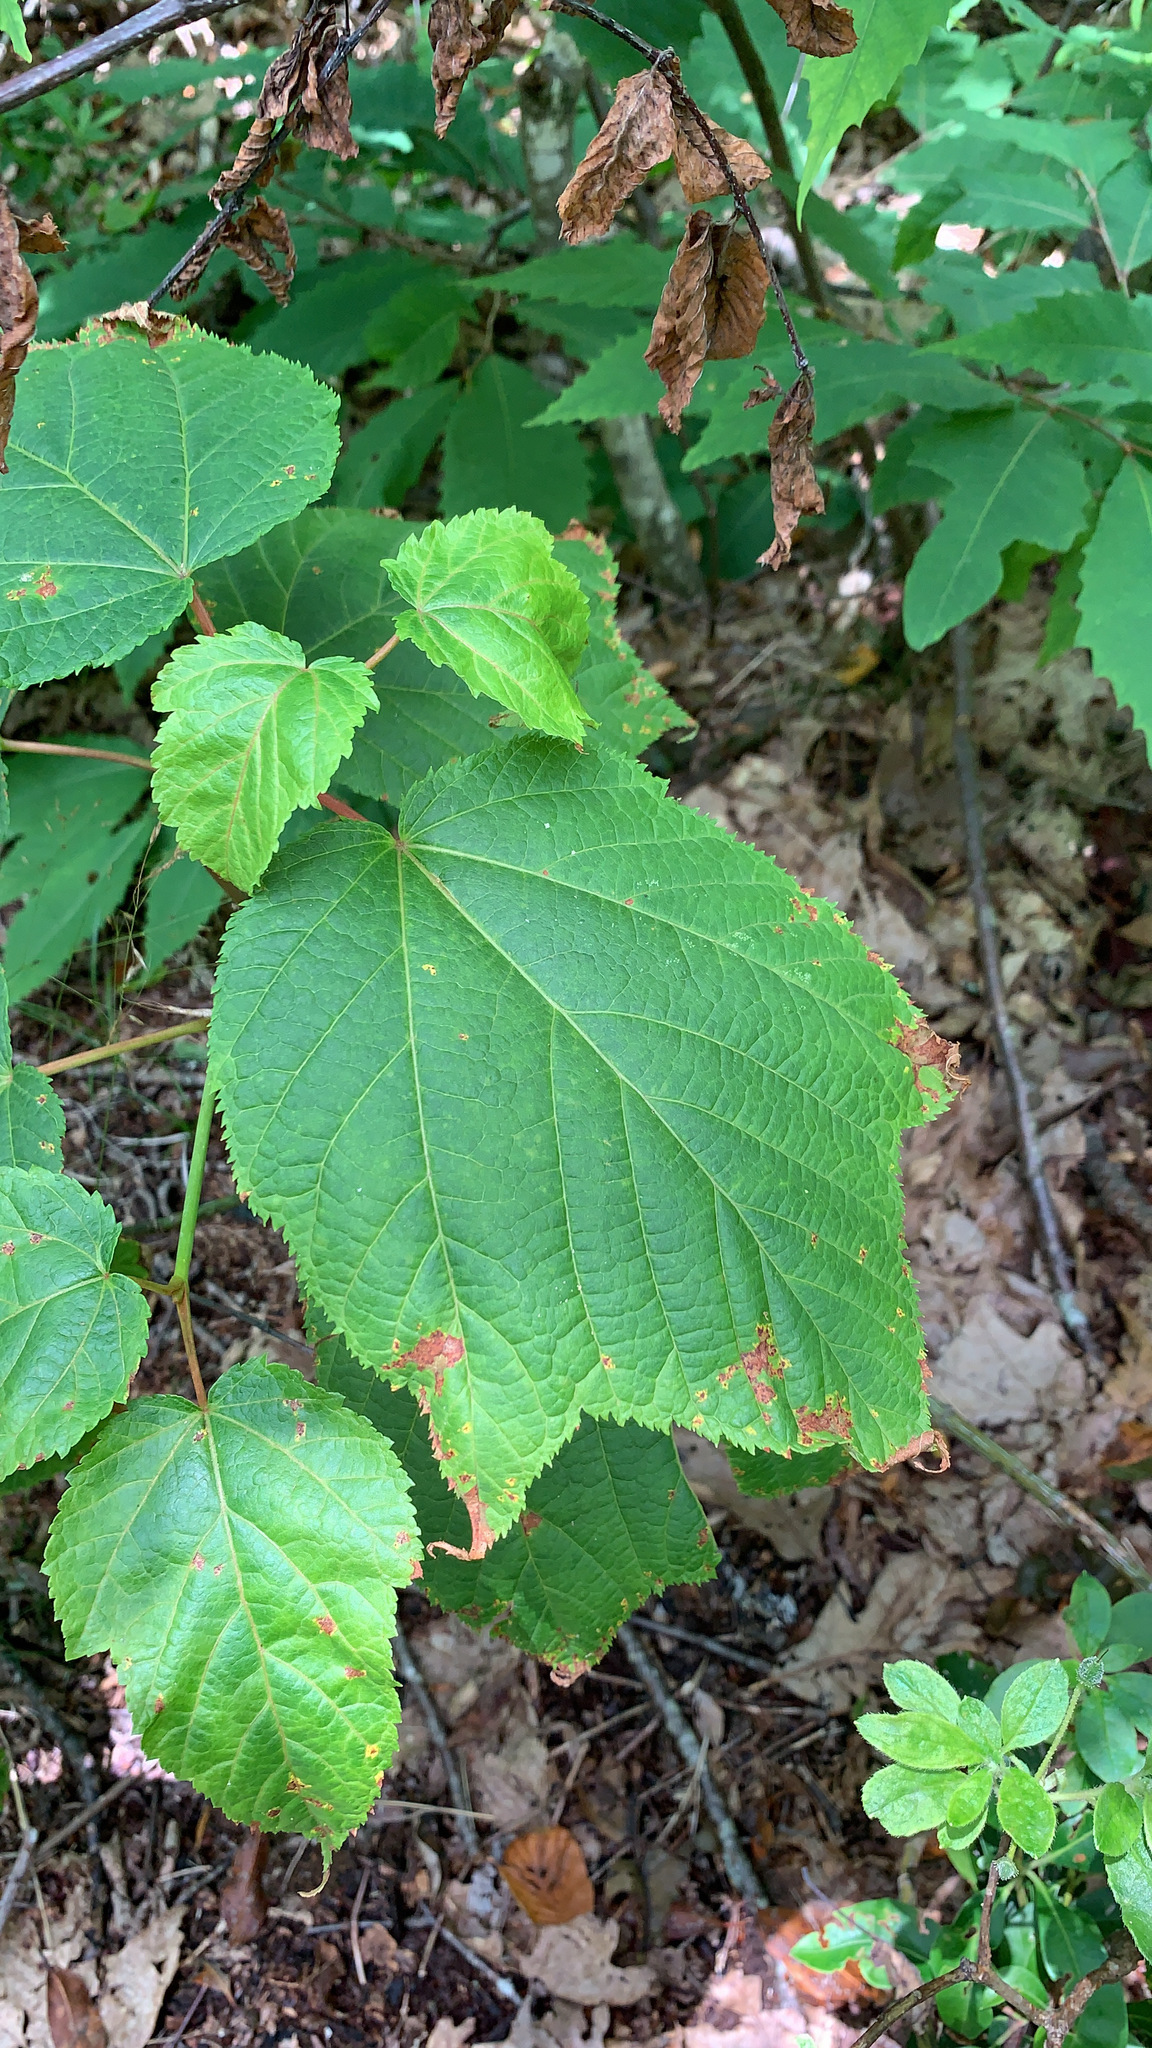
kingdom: Plantae
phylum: Tracheophyta
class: Magnoliopsida
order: Sapindales
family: Sapindaceae
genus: Acer
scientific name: Acer pensylvanicum
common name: Moosewood
